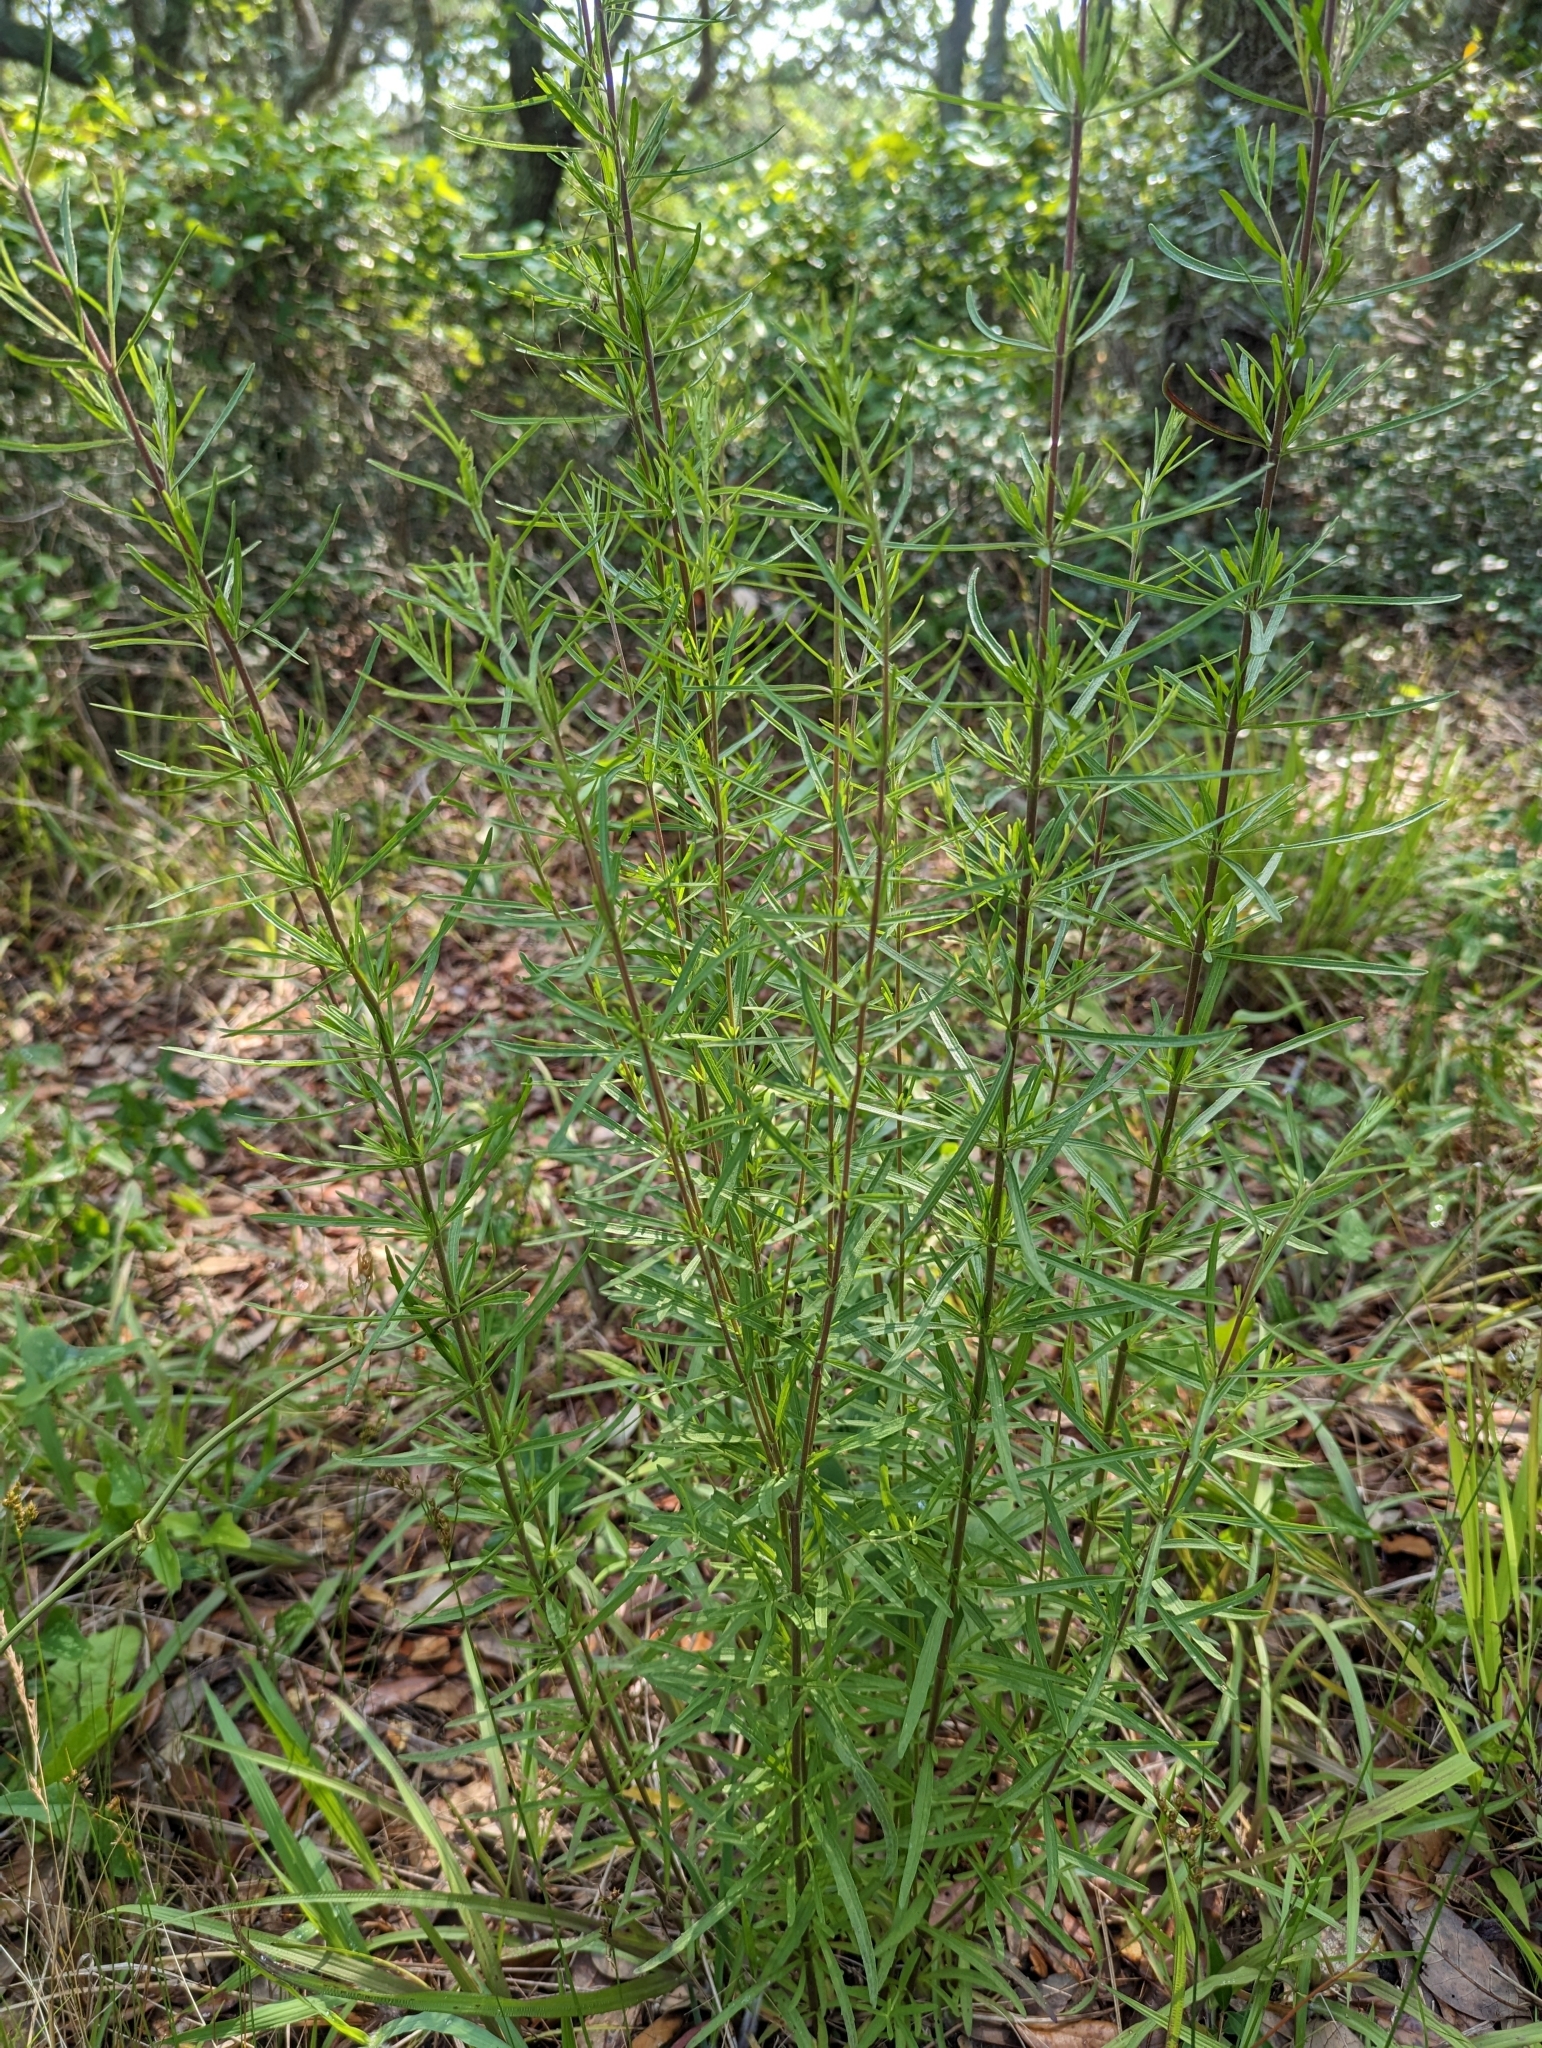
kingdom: Plantae
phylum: Tracheophyta
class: Magnoliopsida
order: Asterales
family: Asteraceae
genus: Eupatorium
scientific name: Eupatorium hyssopifolium
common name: Hyssop-leaf thoroughwort
